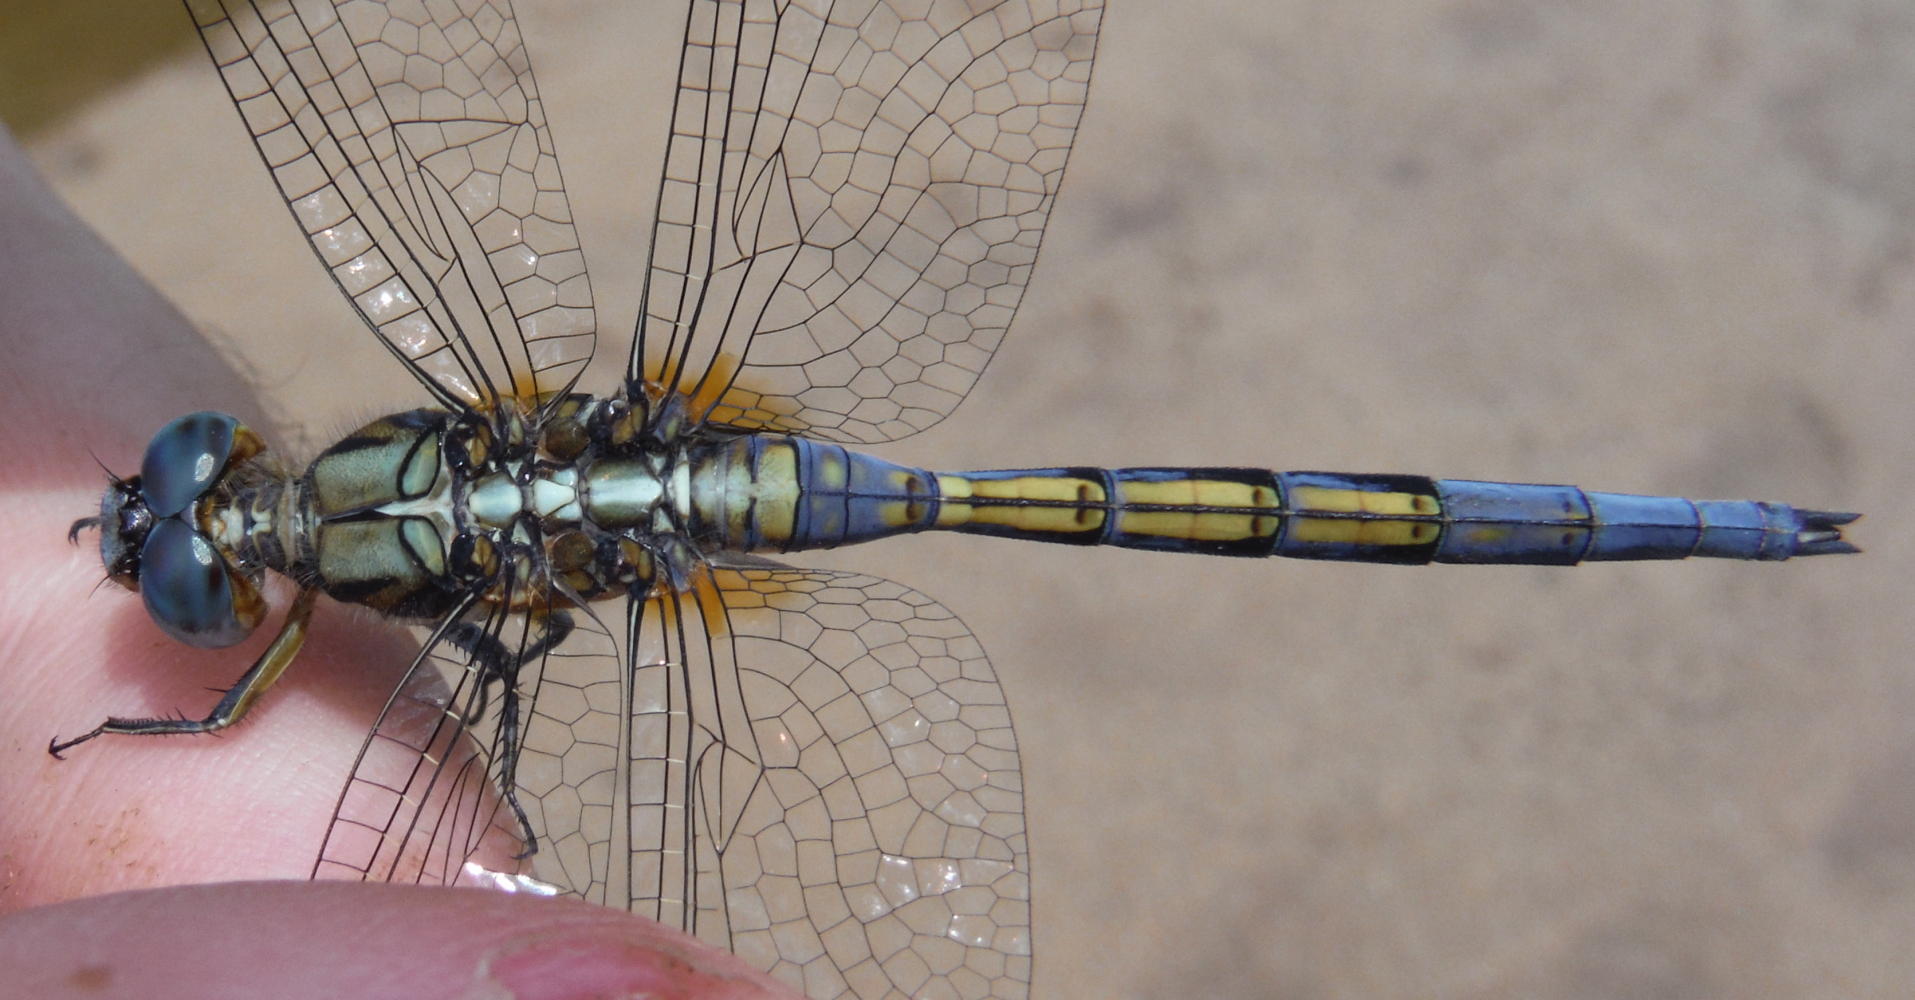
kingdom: Animalia
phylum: Arthropoda
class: Insecta
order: Odonata
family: Libellulidae
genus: Orthetrum
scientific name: Orthetrum chrysostigma
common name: Epaulet skimmer
